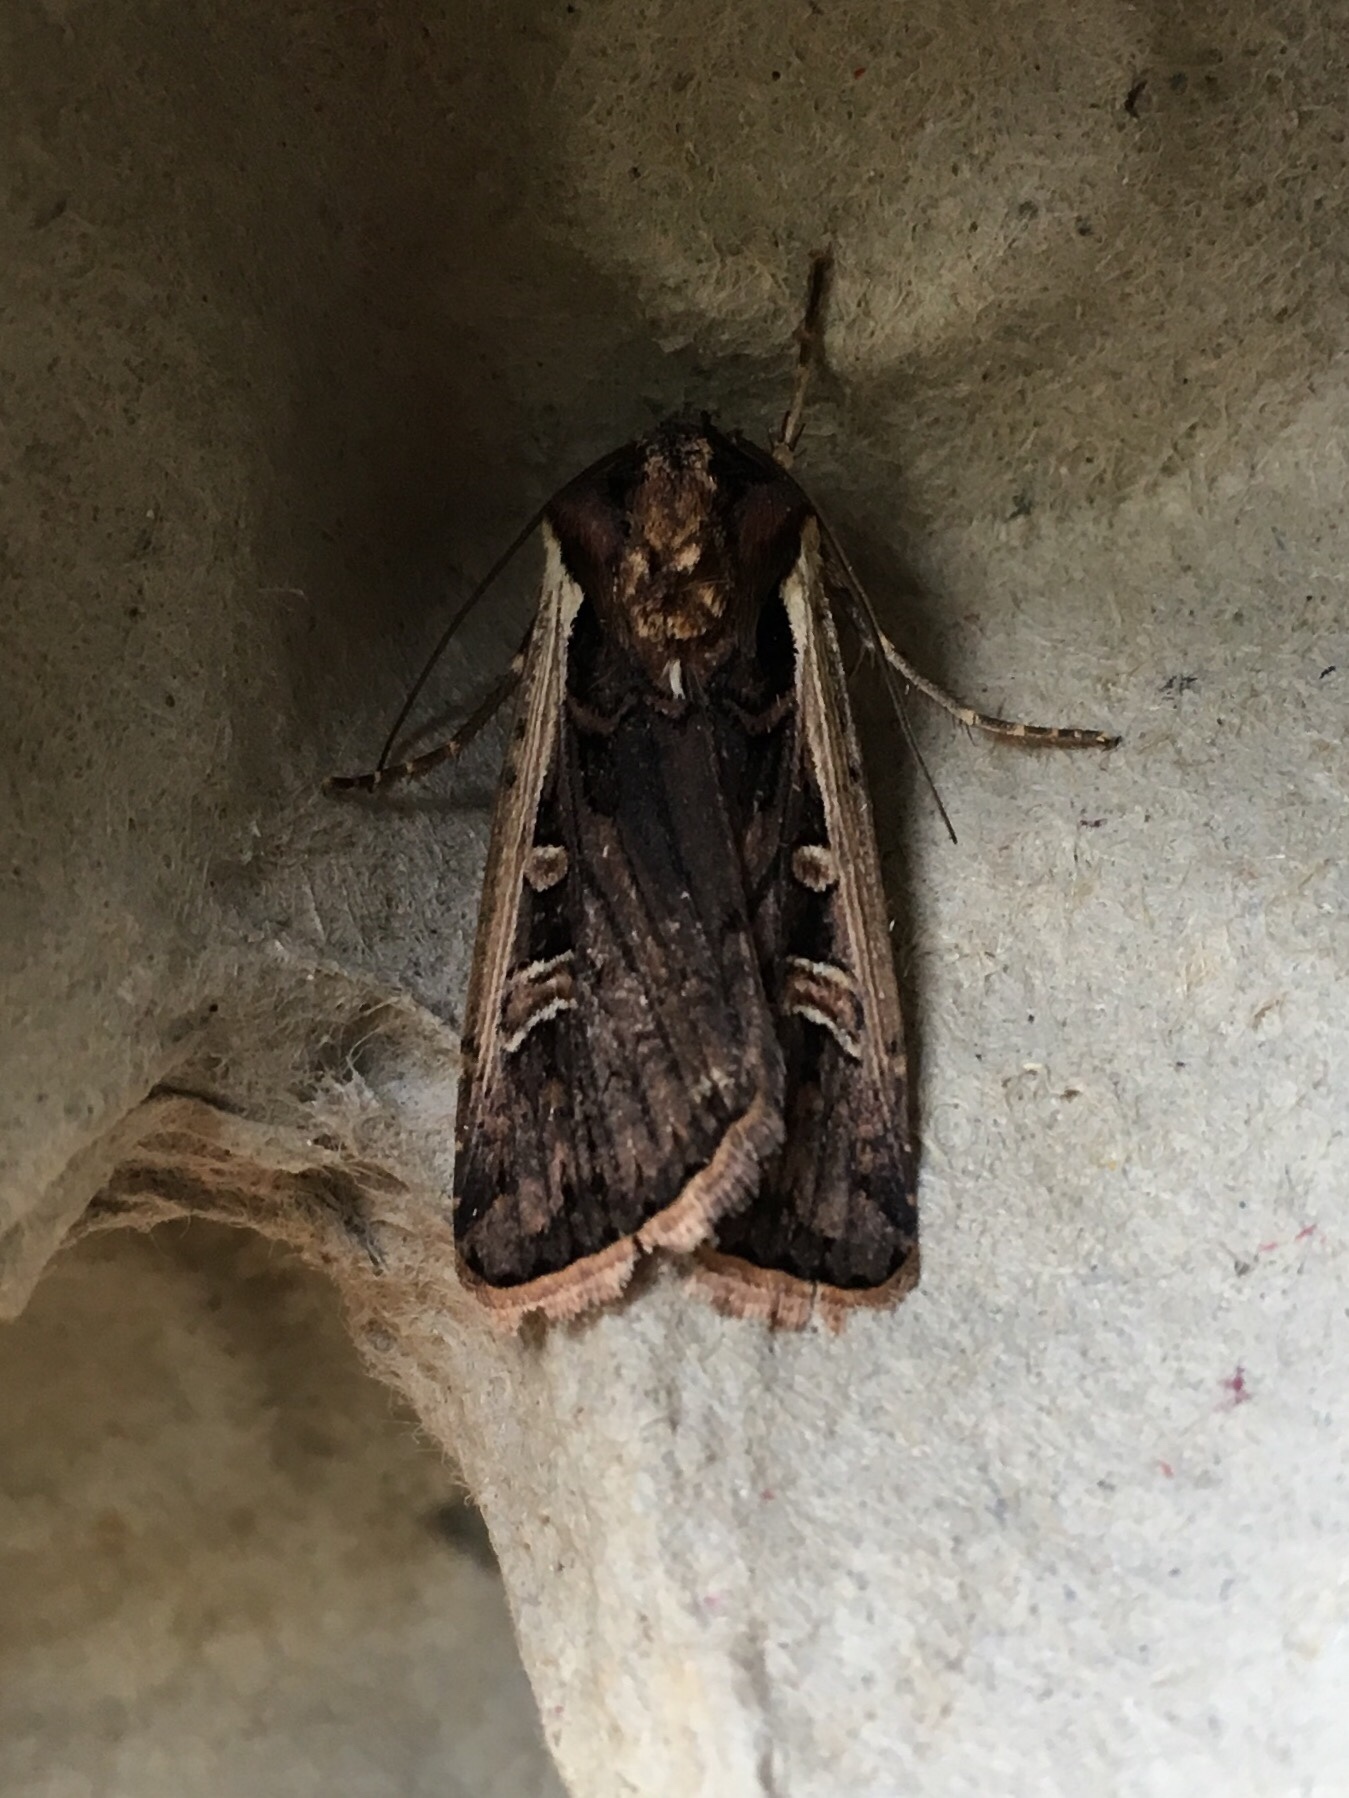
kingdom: Animalia
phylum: Arthropoda
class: Insecta
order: Lepidoptera
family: Noctuidae
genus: Striacosta
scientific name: Striacosta albicosta
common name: Western bean cutworm moth
